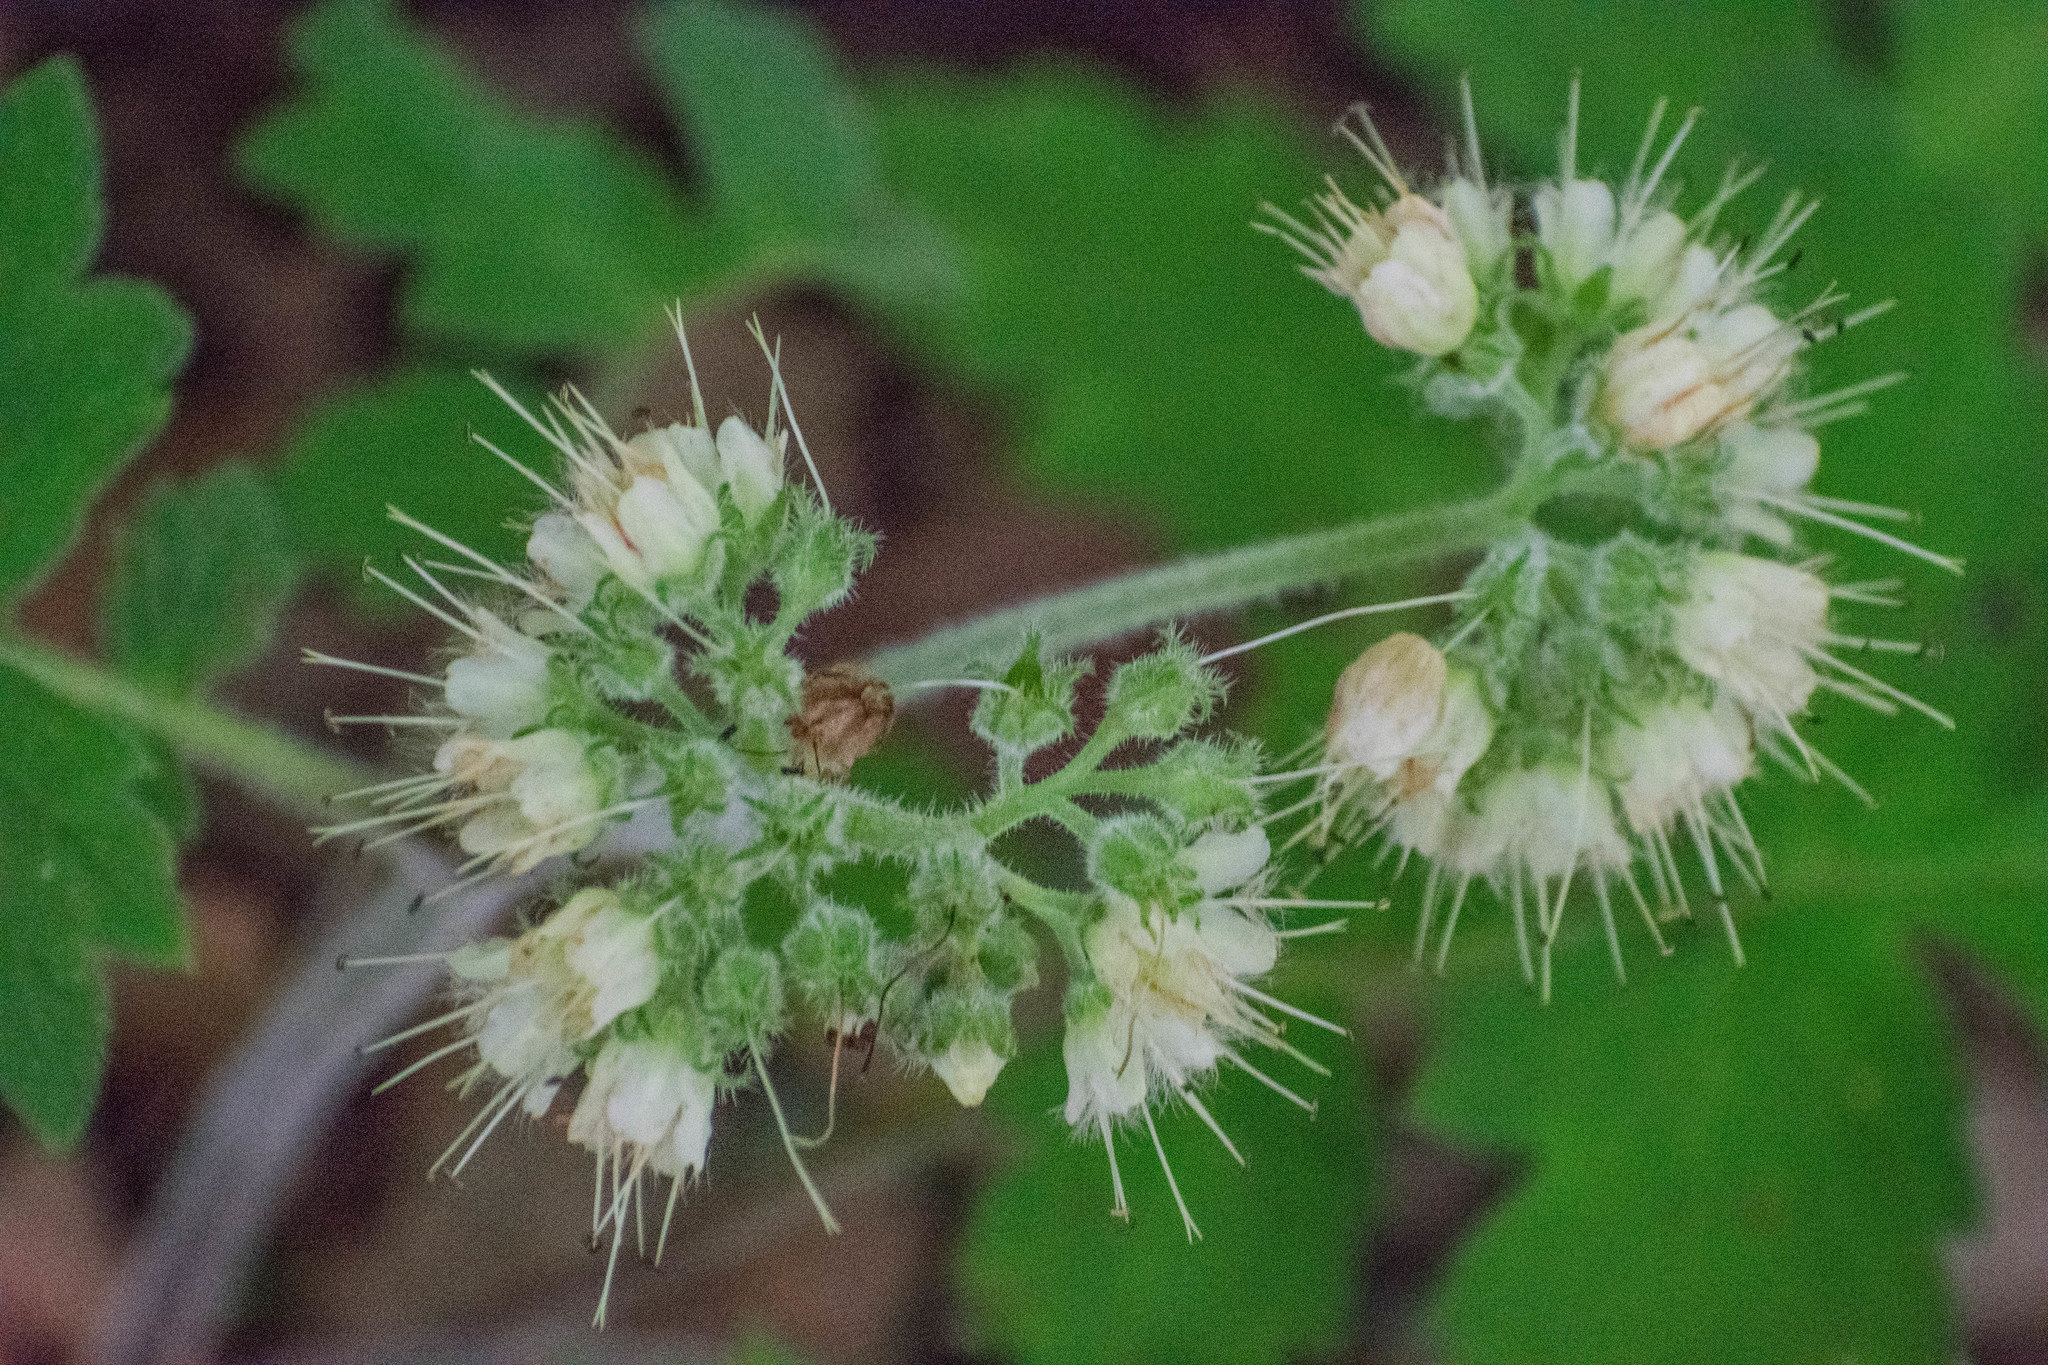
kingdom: Plantae
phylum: Tracheophyta
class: Magnoliopsida
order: Boraginales
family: Hydrophyllaceae
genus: Hydrophyllum
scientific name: Hydrophyllum virginianum
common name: Virginia waterleaf
